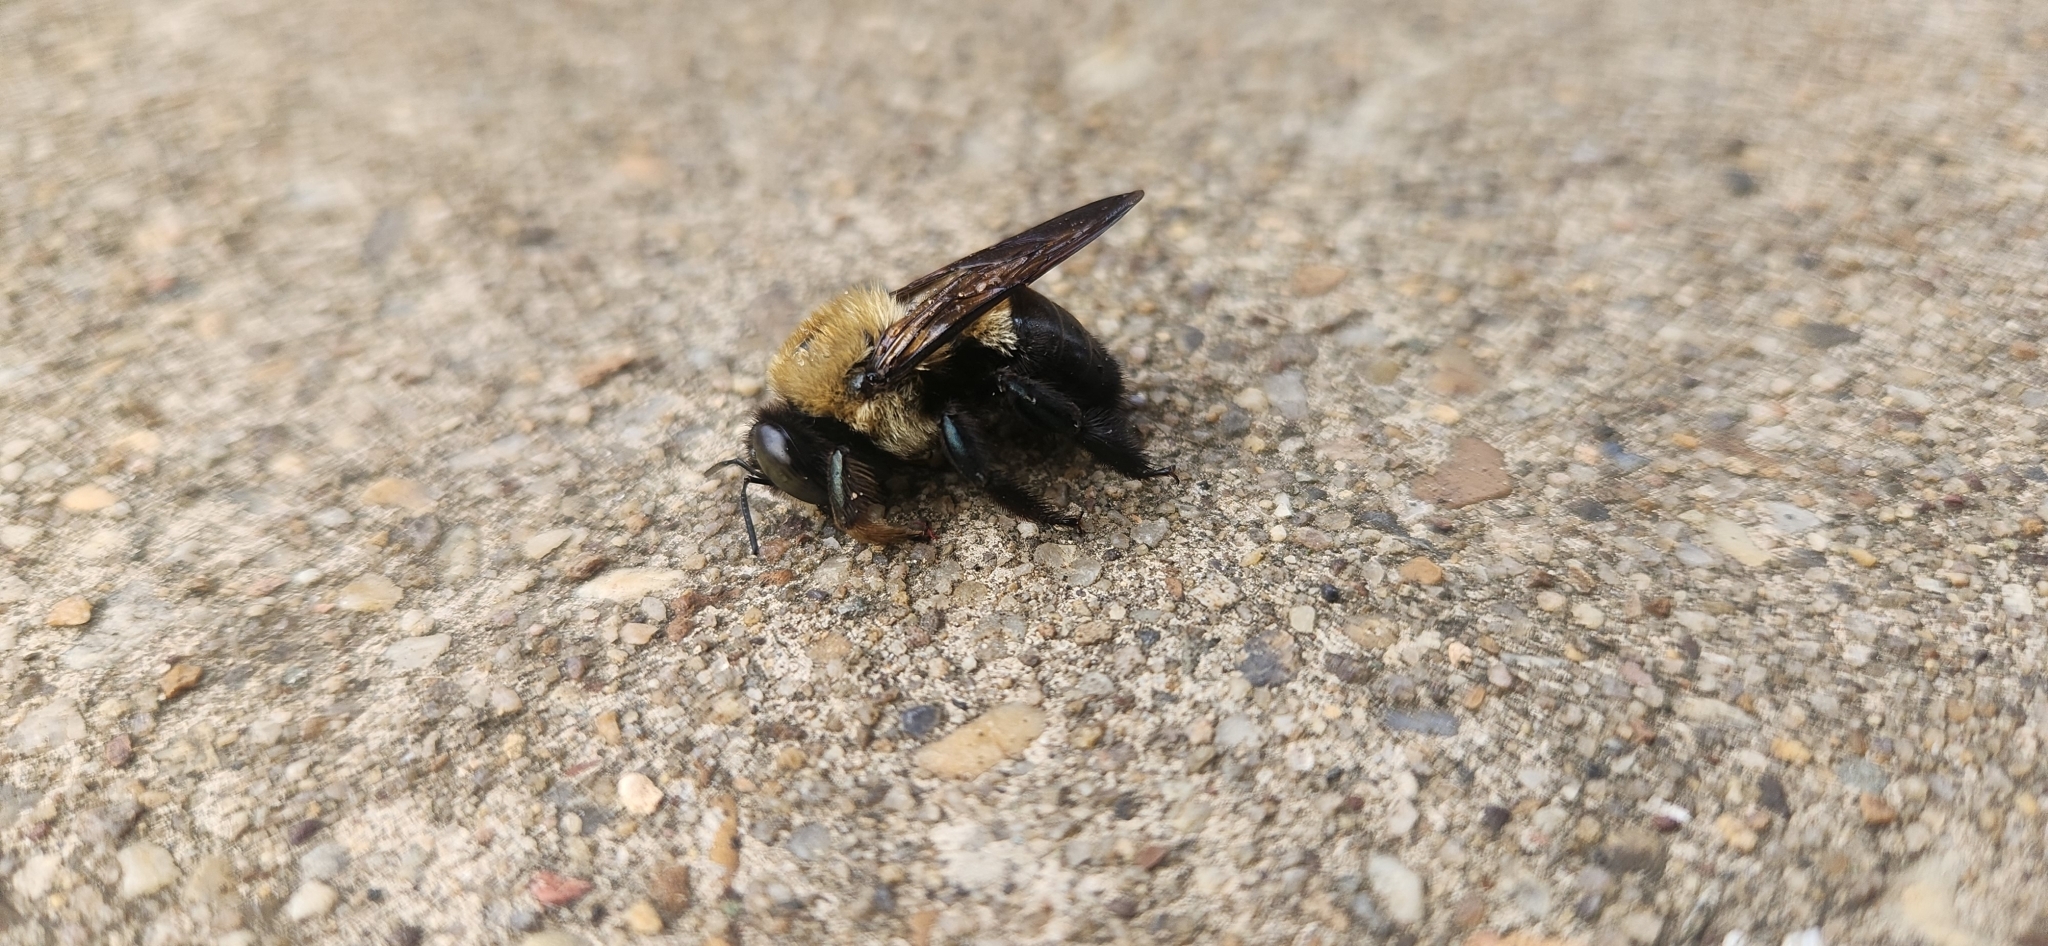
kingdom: Animalia
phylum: Arthropoda
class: Insecta
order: Hymenoptera
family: Apidae
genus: Xylocopa
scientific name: Xylocopa virginica
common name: Carpenter bee
